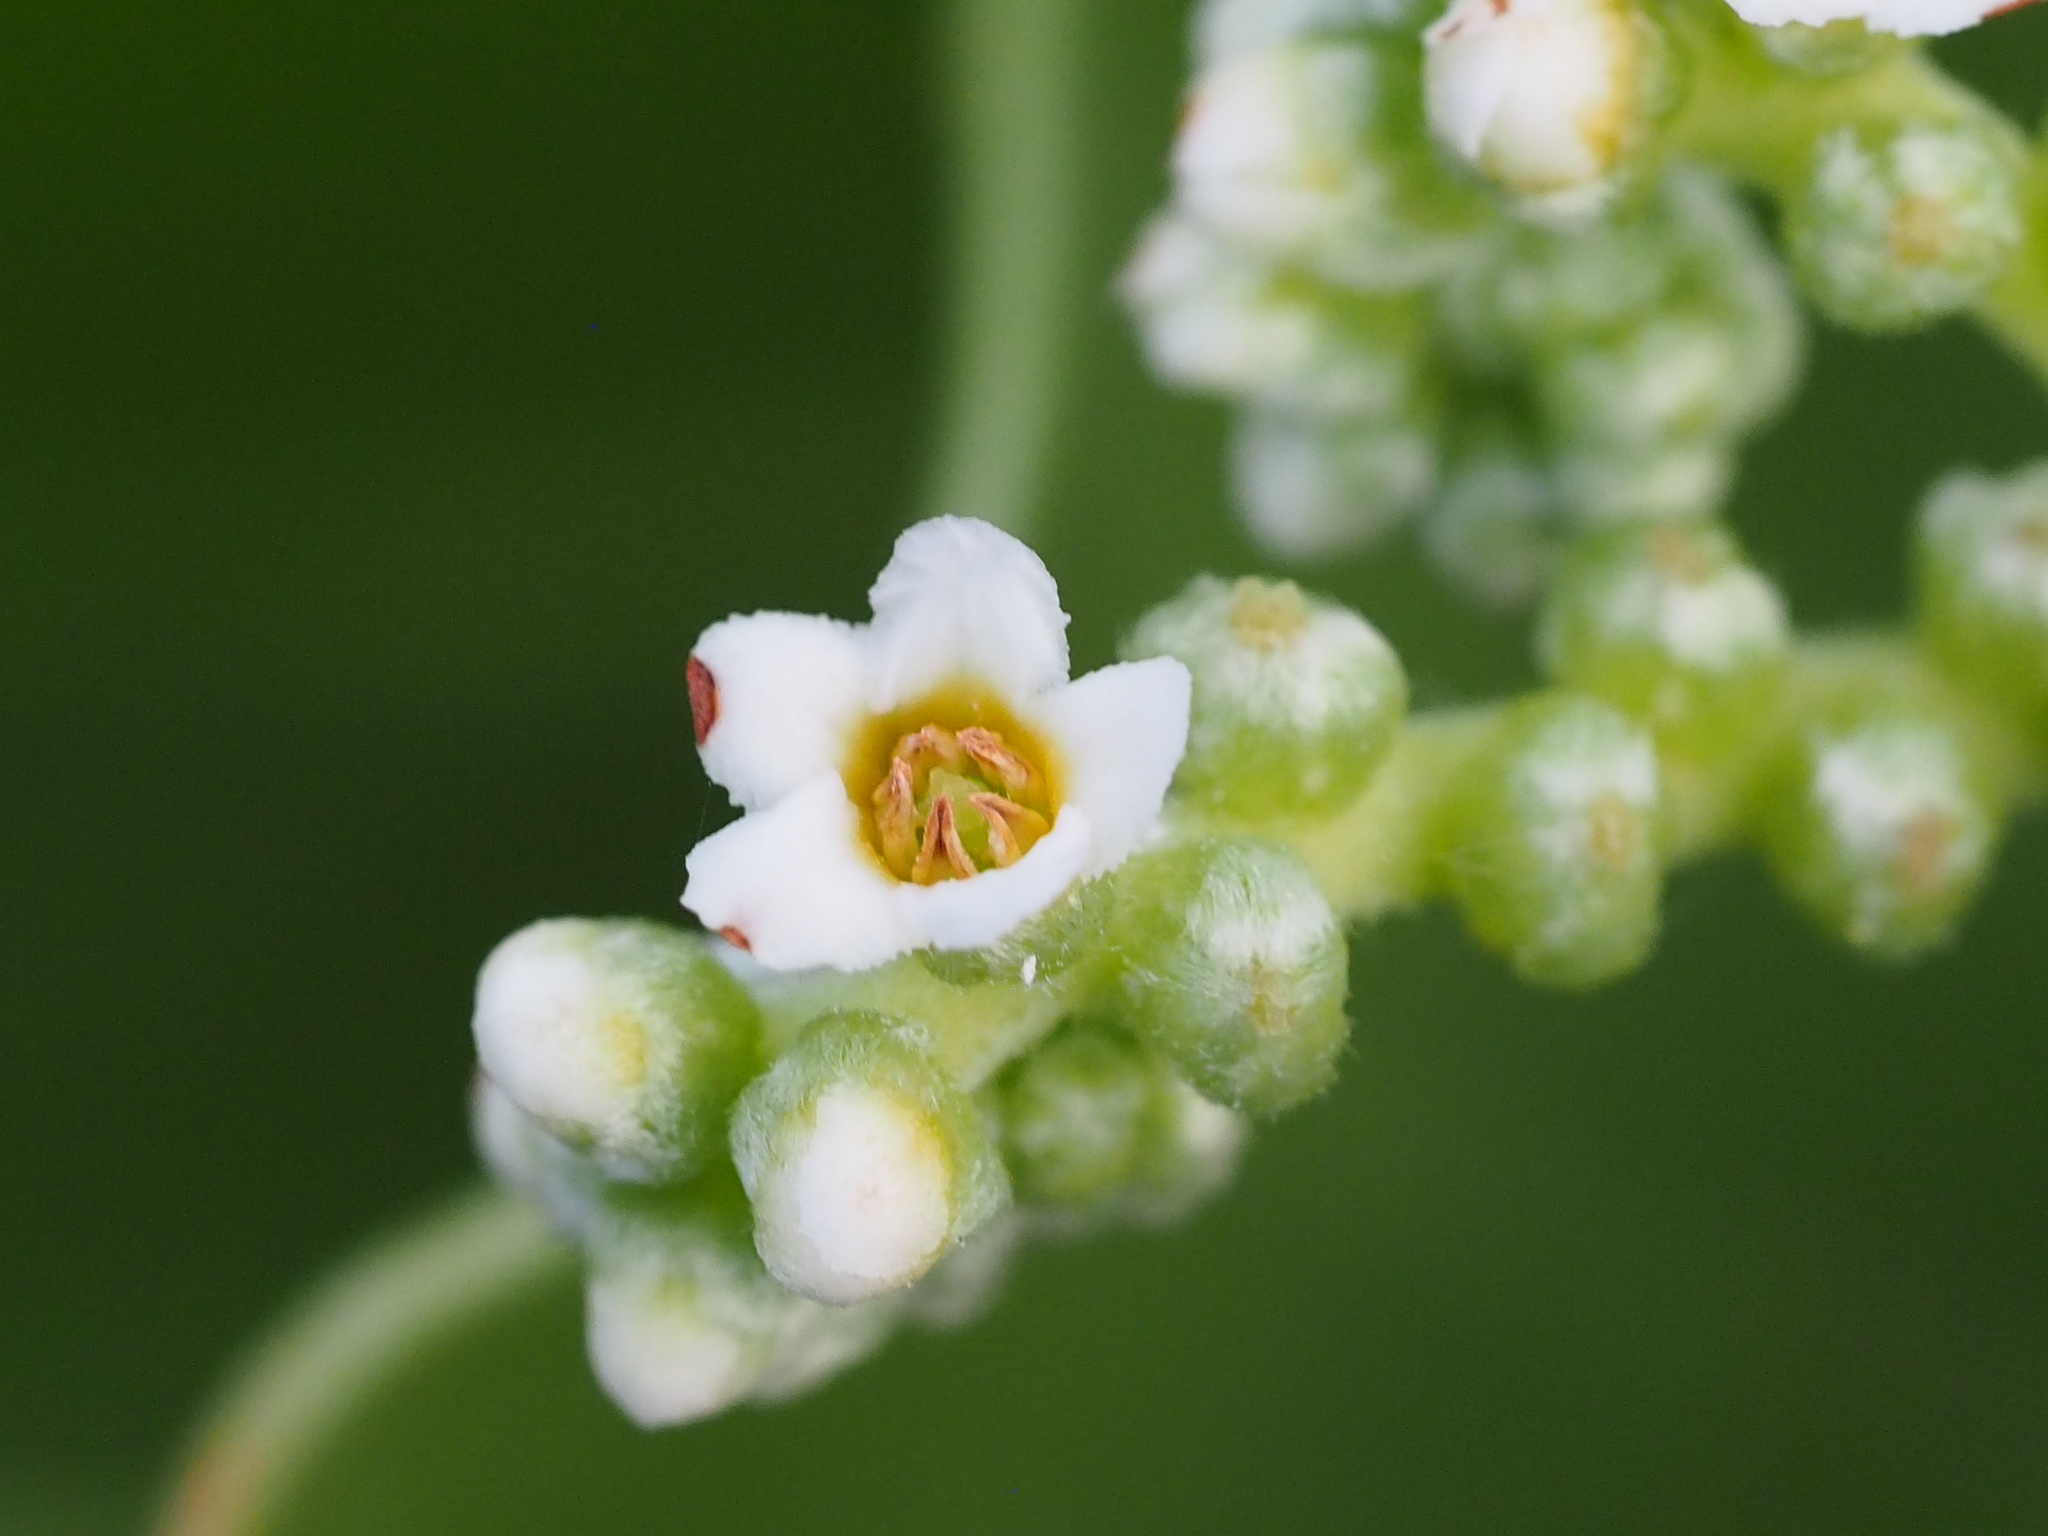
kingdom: Plantae
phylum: Tracheophyta
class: Magnoliopsida
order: Boraginales
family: Heliotropiaceae
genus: Heliotropium
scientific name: Heliotropium velutinum
